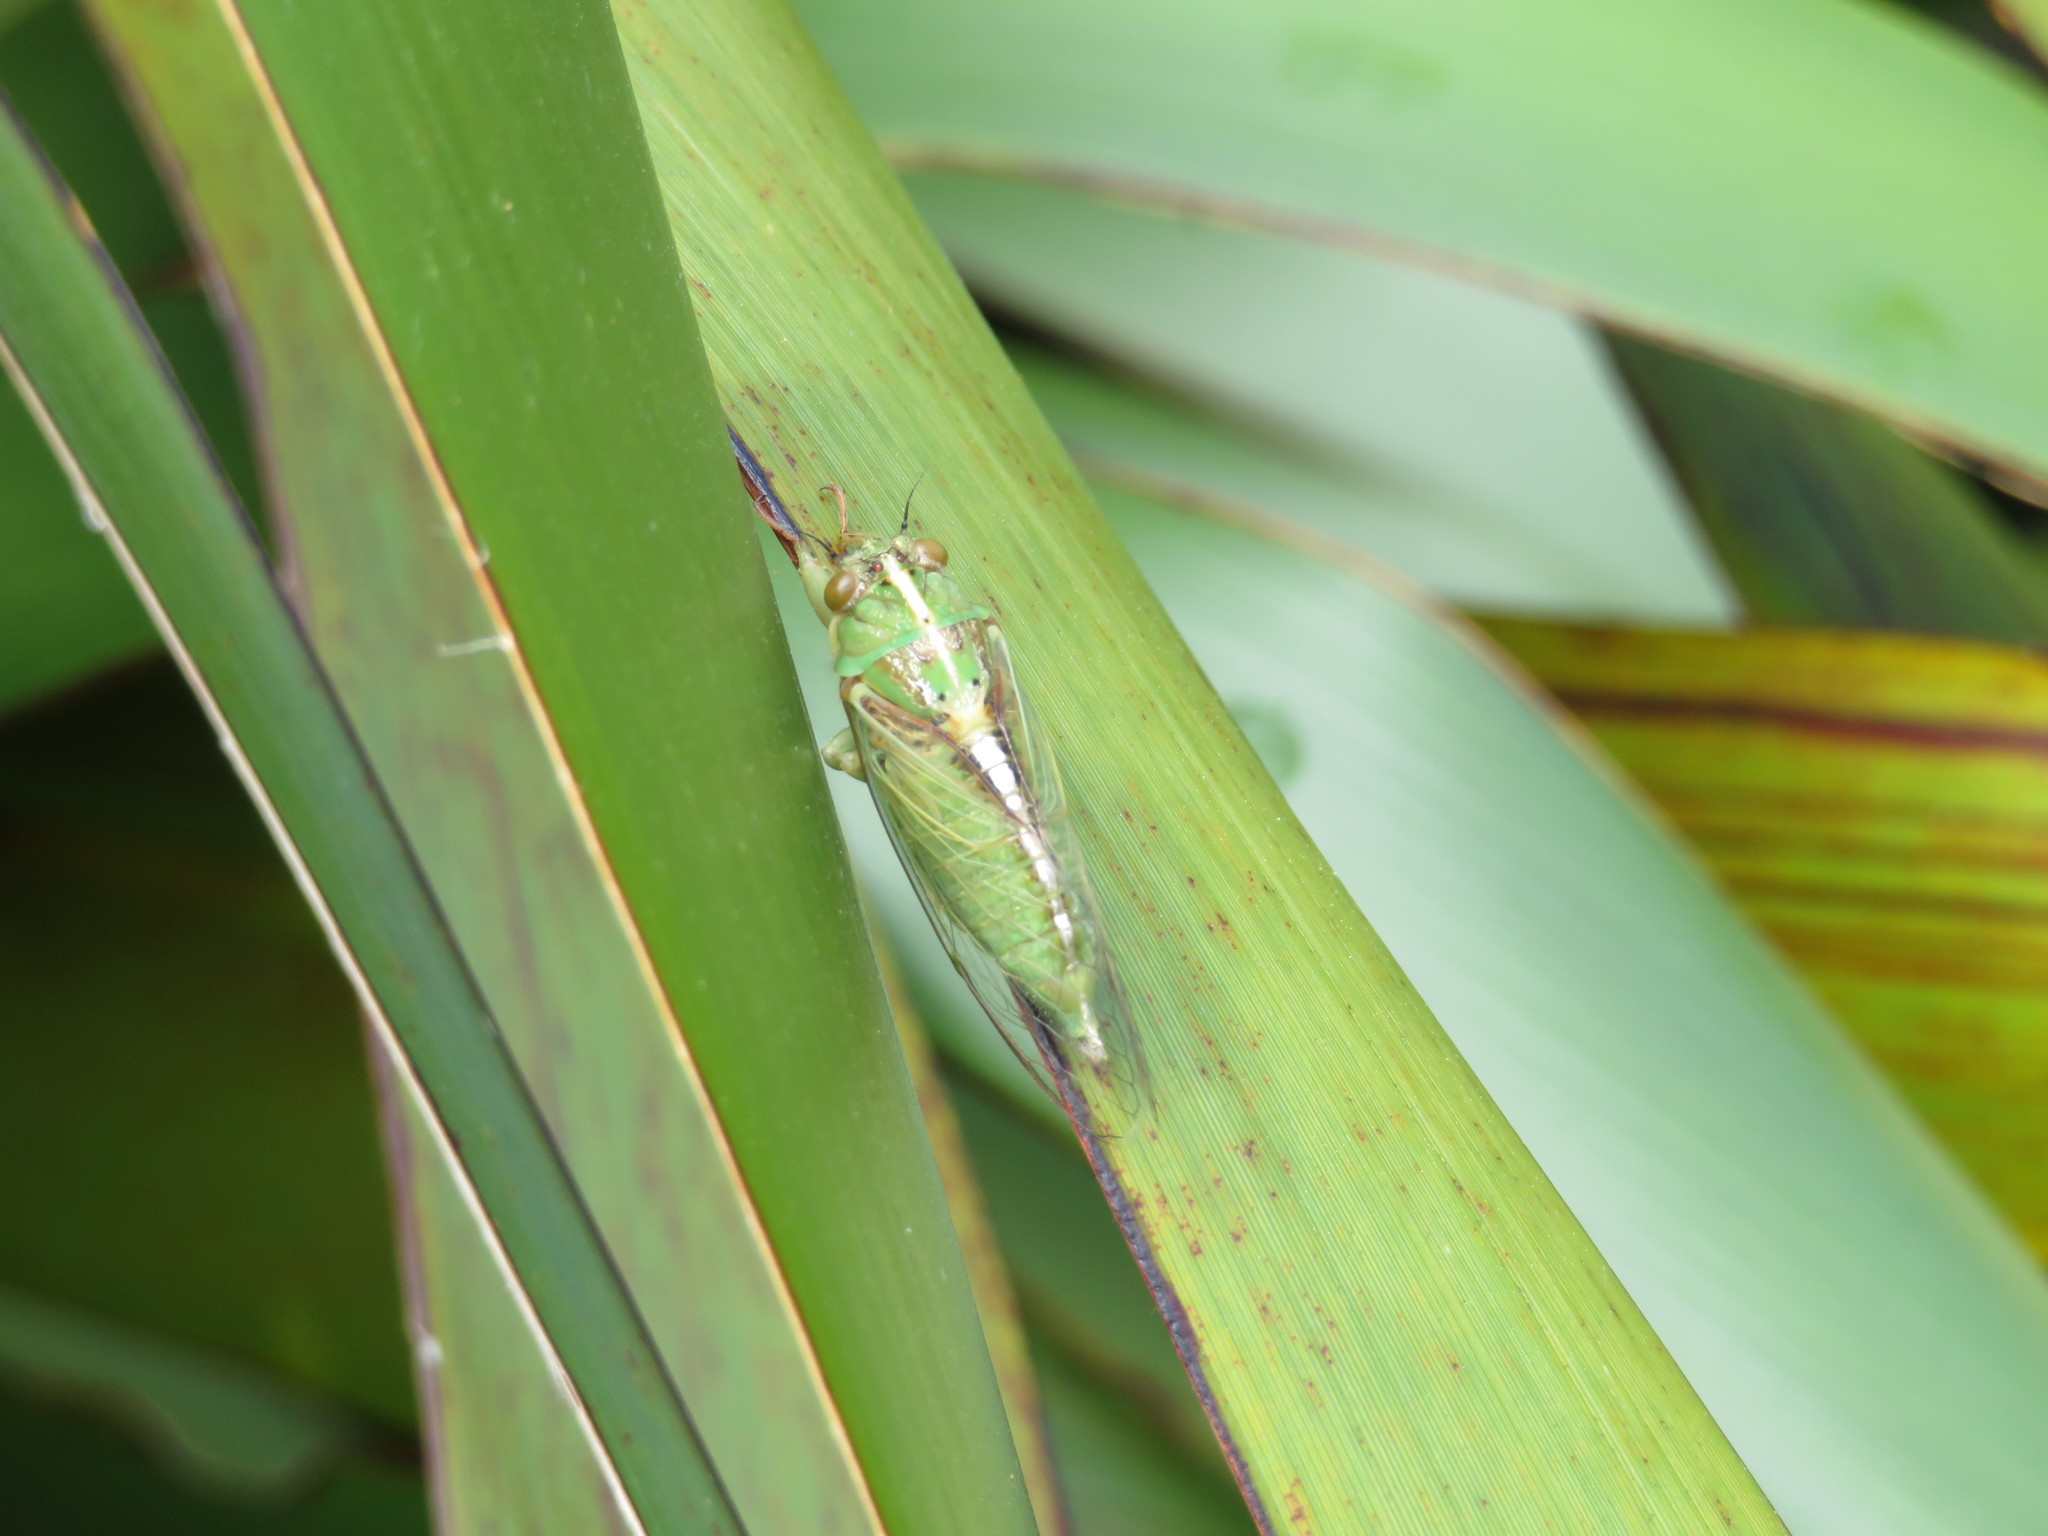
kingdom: Animalia
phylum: Arthropoda
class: Insecta
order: Hemiptera
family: Cicadidae
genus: Kikihia
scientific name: Kikihia muta
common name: Variable cicada
